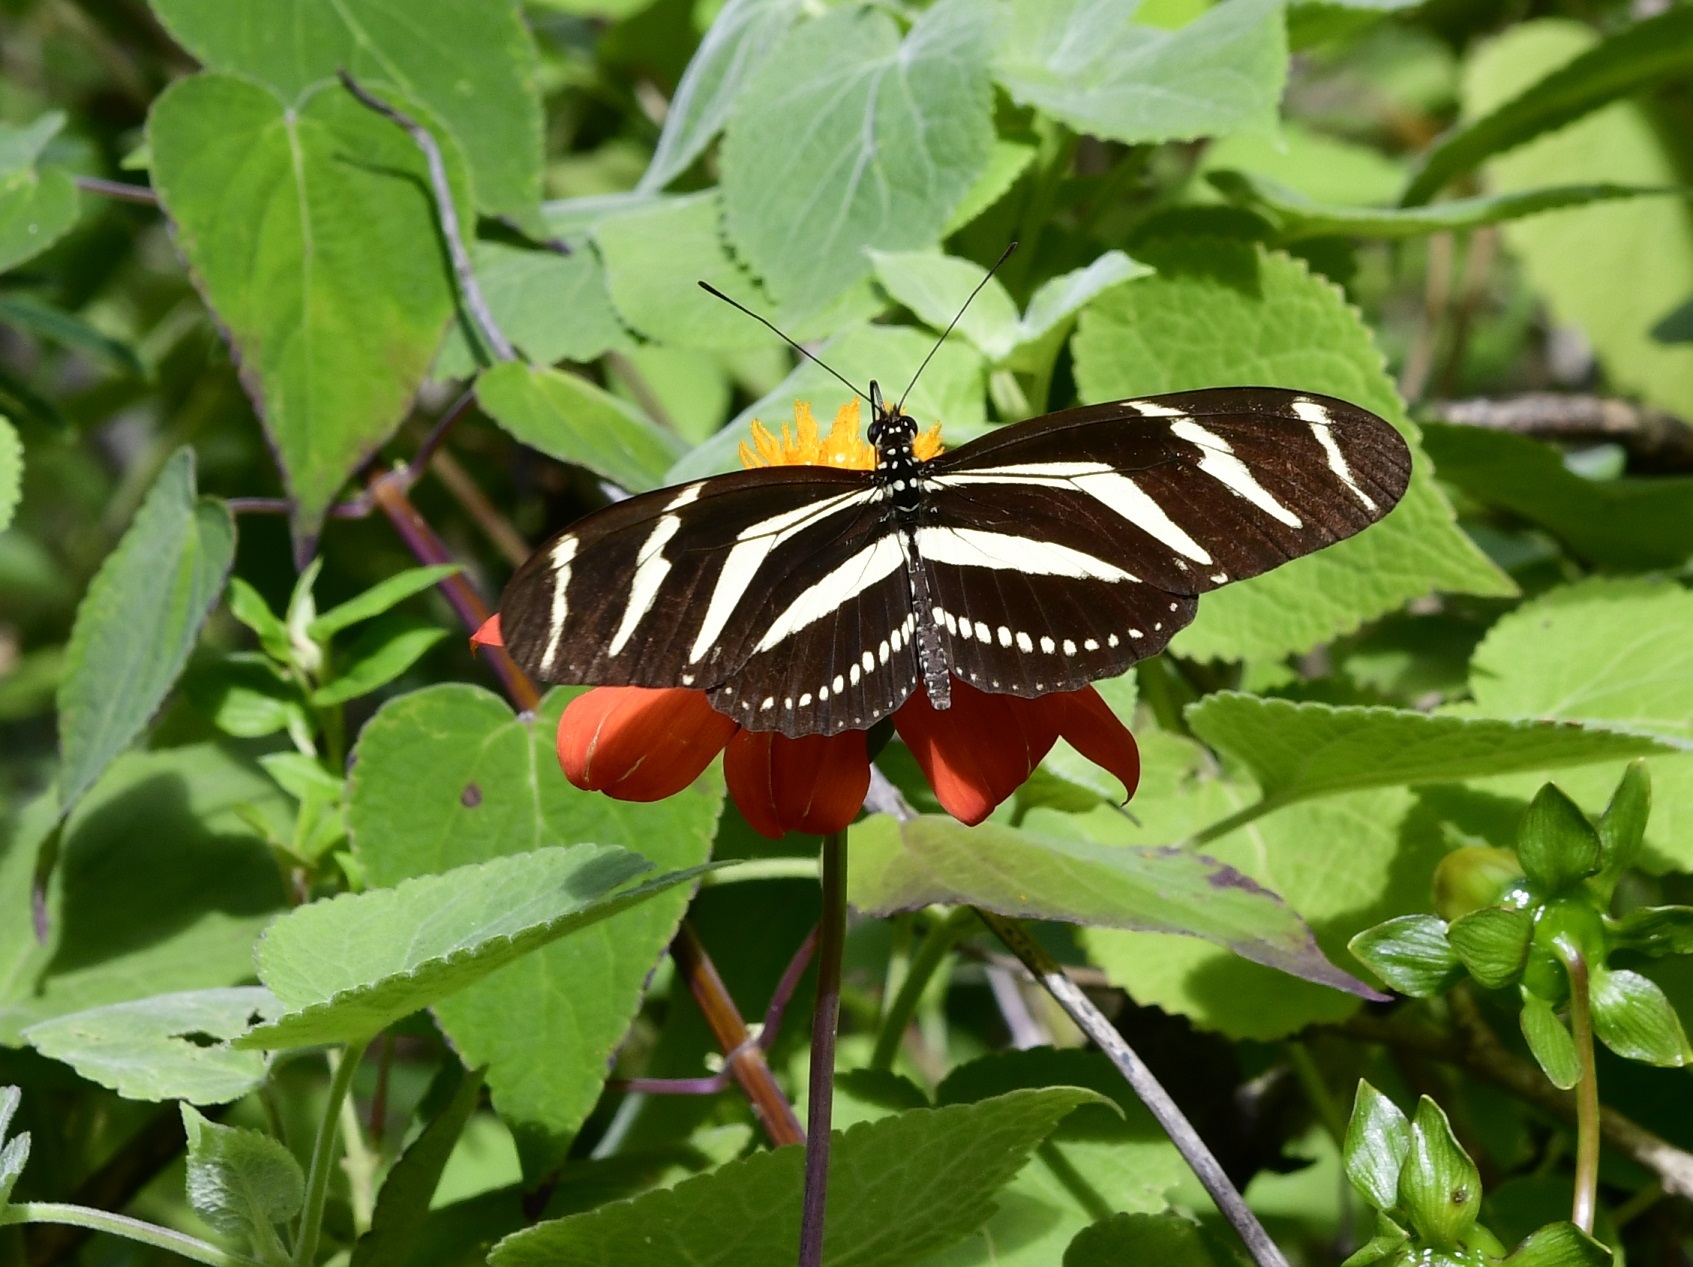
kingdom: Animalia
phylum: Arthropoda
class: Insecta
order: Lepidoptera
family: Nymphalidae
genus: Heliconius
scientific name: Heliconius charithonia
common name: Zebra long wing
